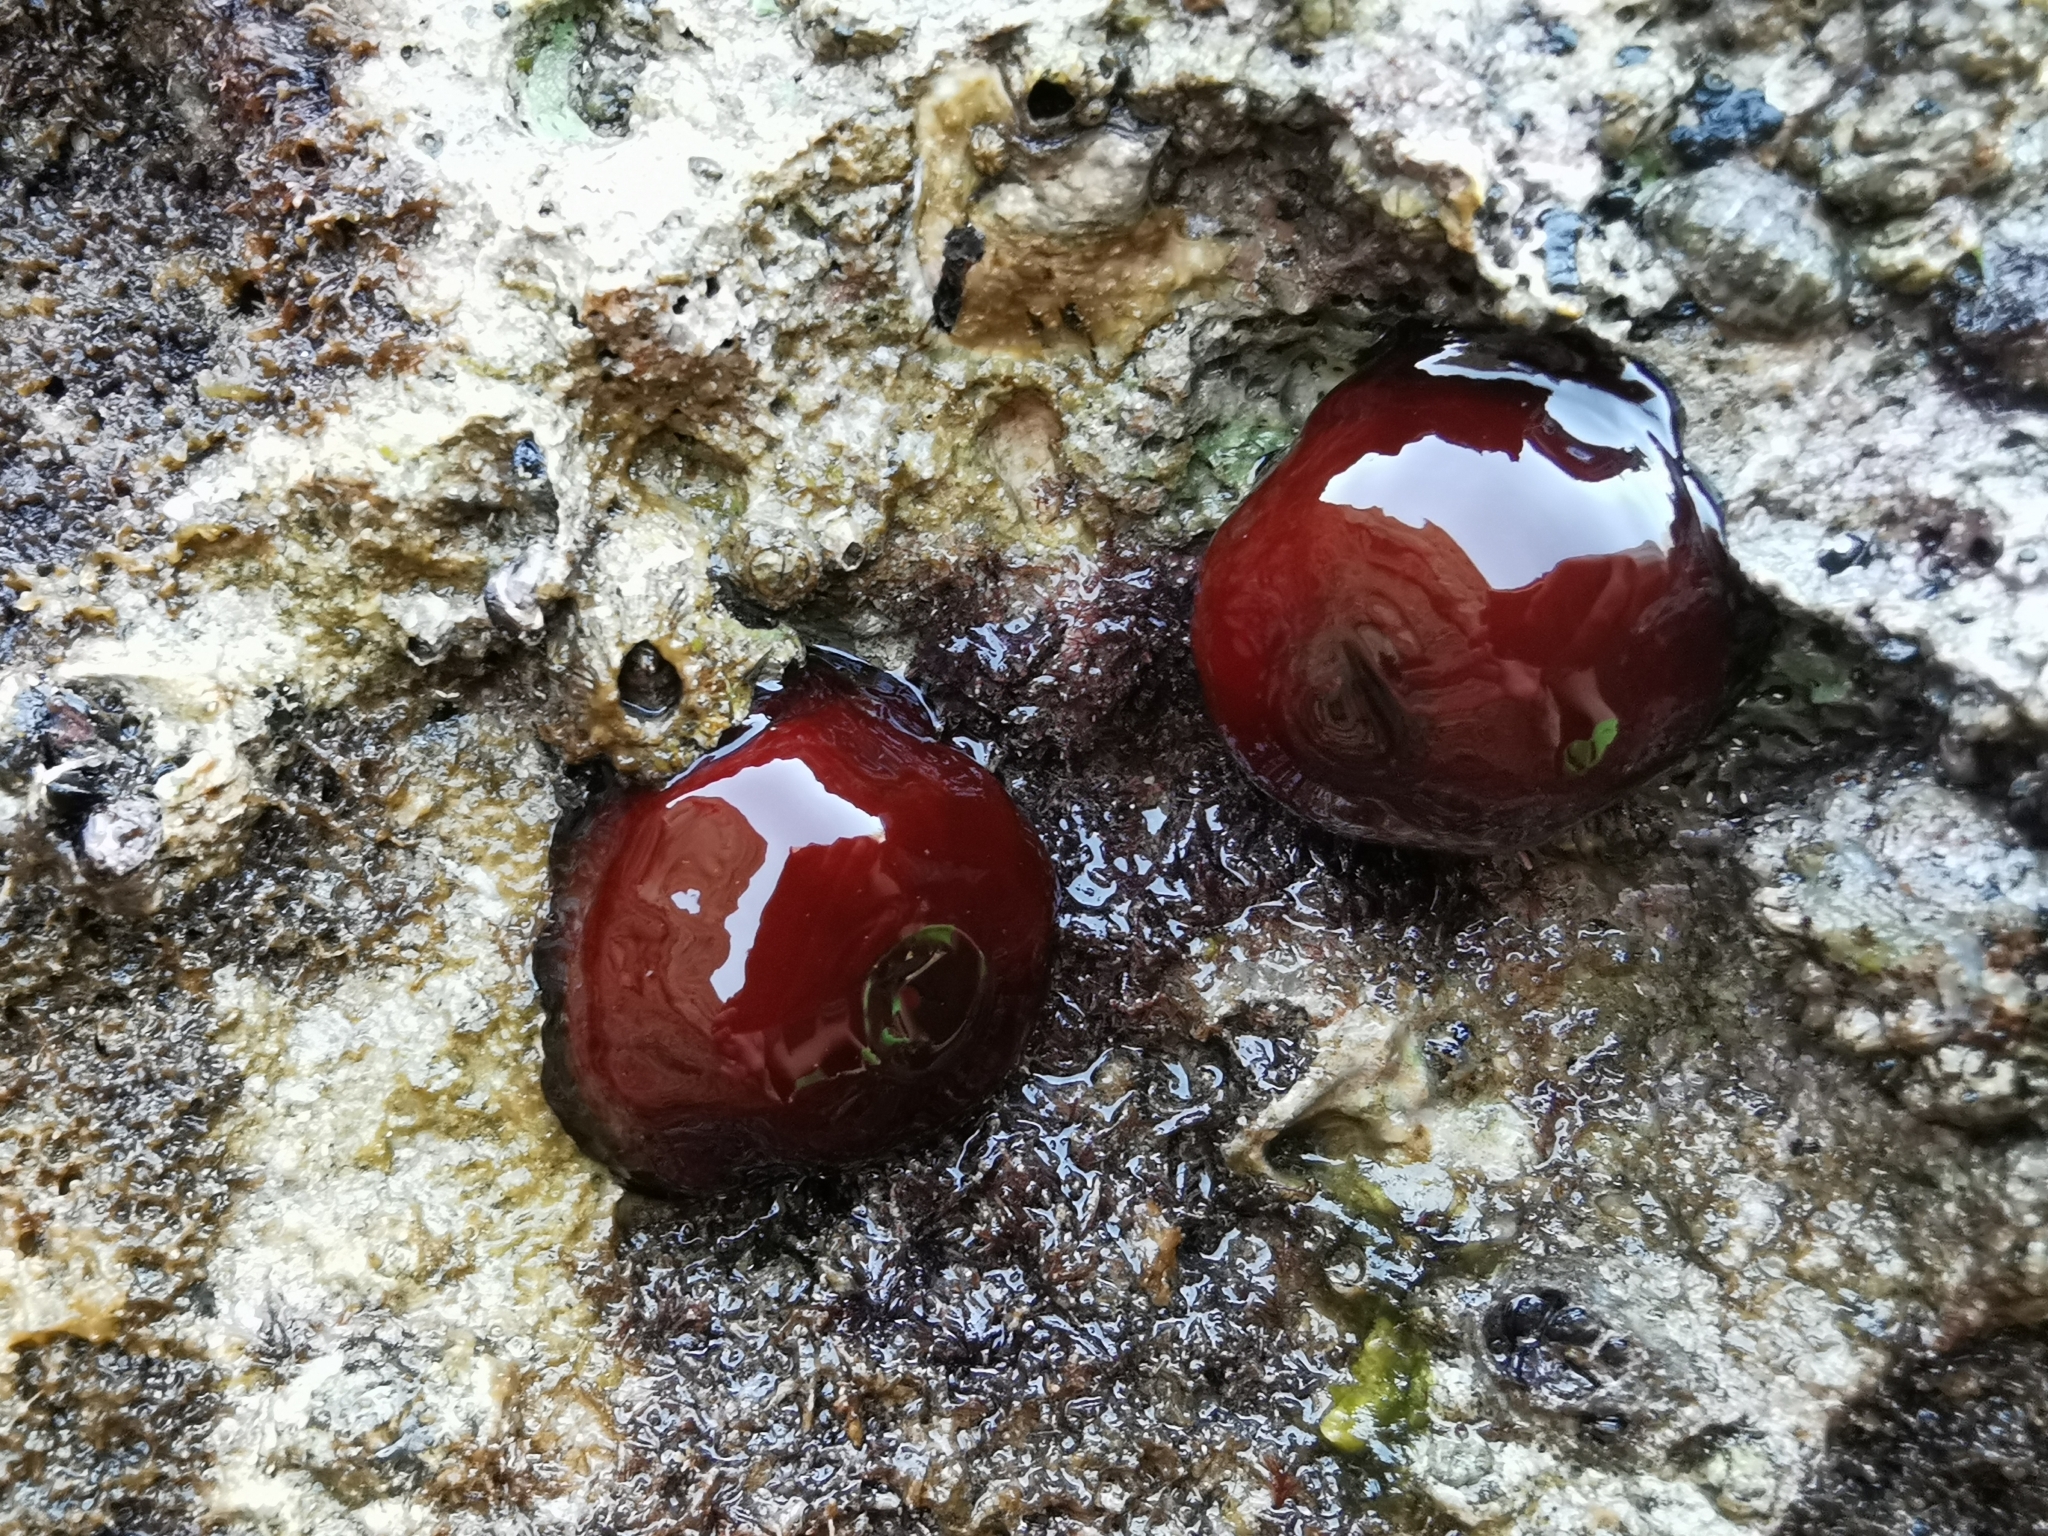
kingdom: Animalia
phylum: Cnidaria
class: Anthozoa
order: Actiniaria
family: Actiniidae
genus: Actinia
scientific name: Actinia mediterranea
